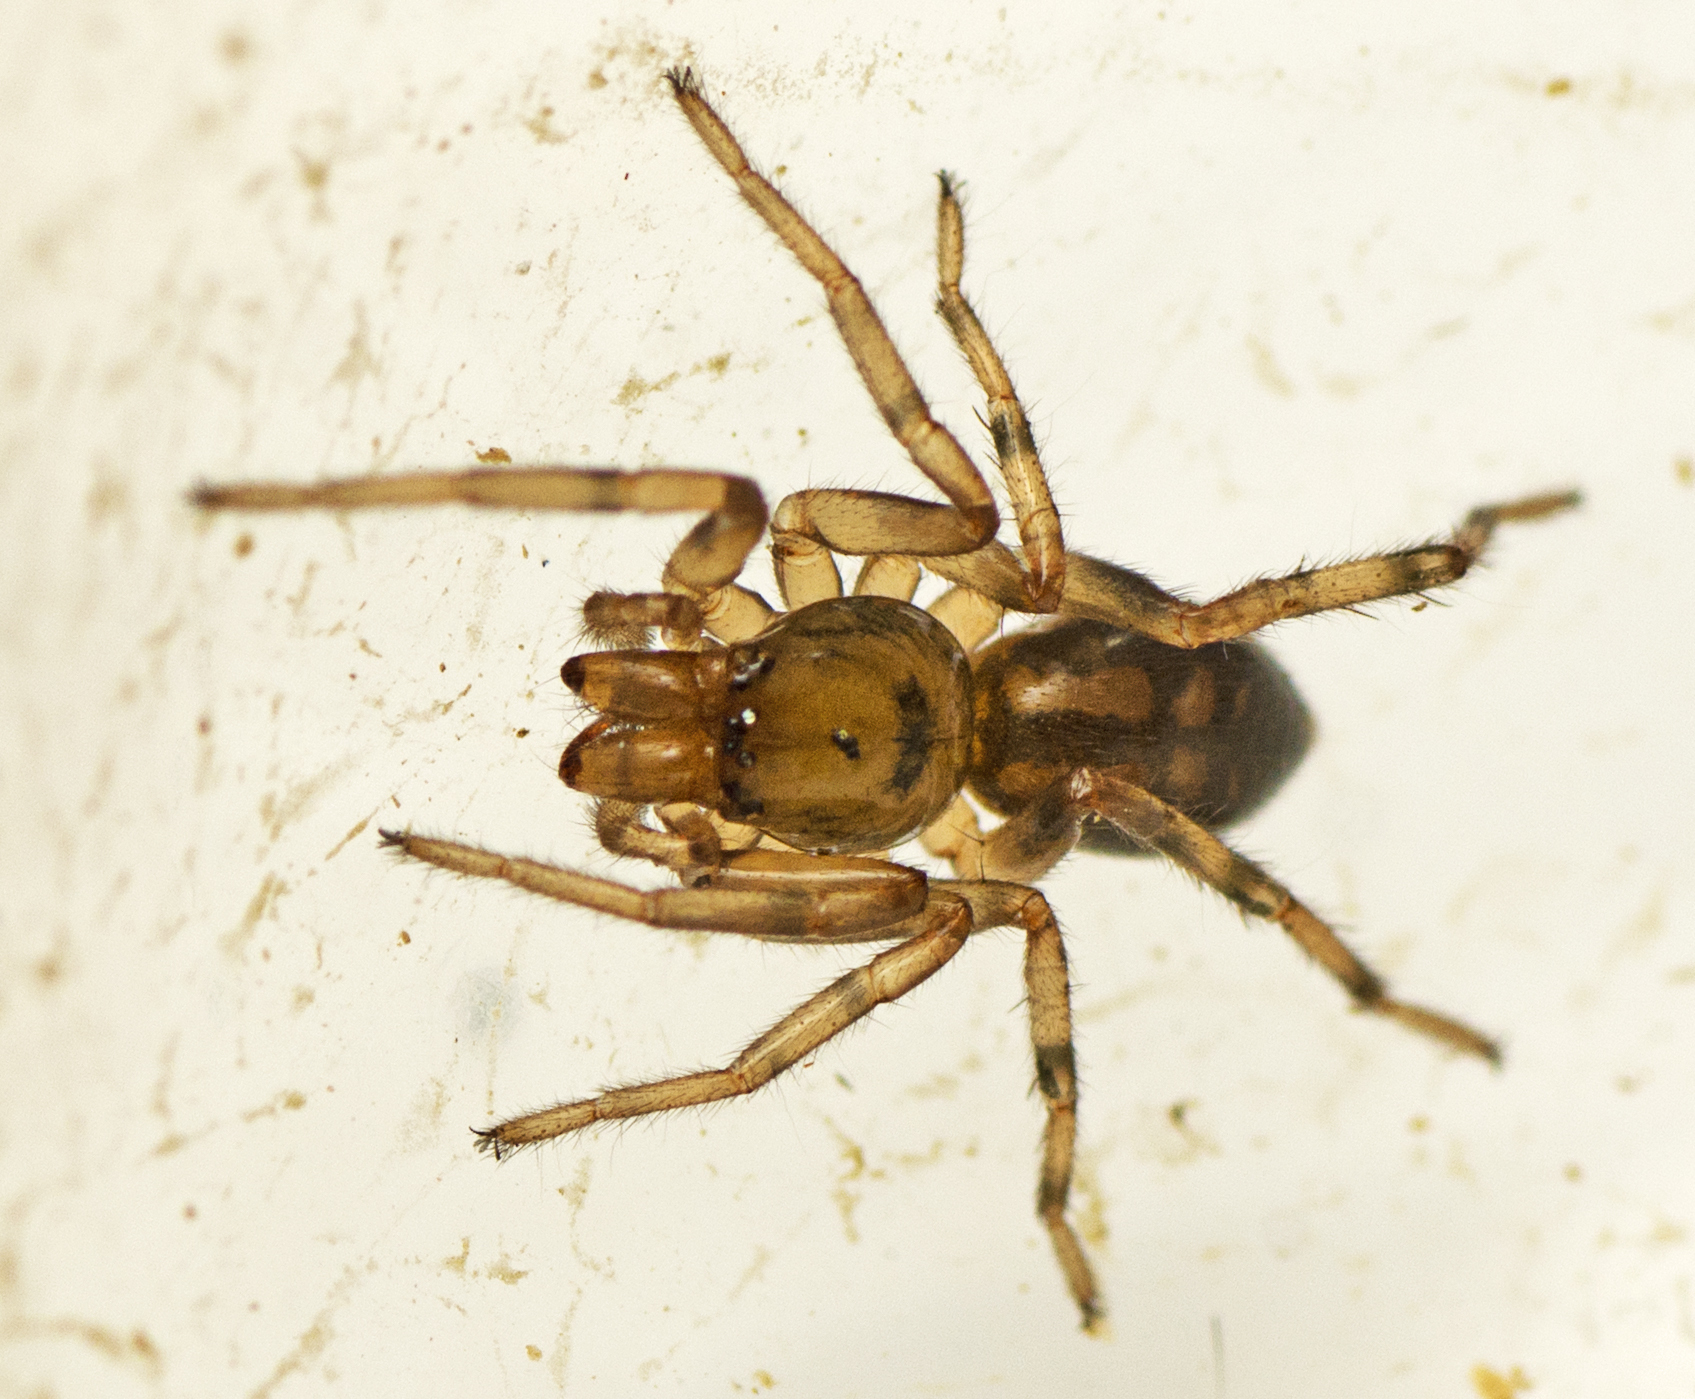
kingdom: Animalia
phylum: Arthropoda
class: Arachnida
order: Araneae
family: Trachycosmidae
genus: Desognaphosa
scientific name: Desognaphosa yabbra
